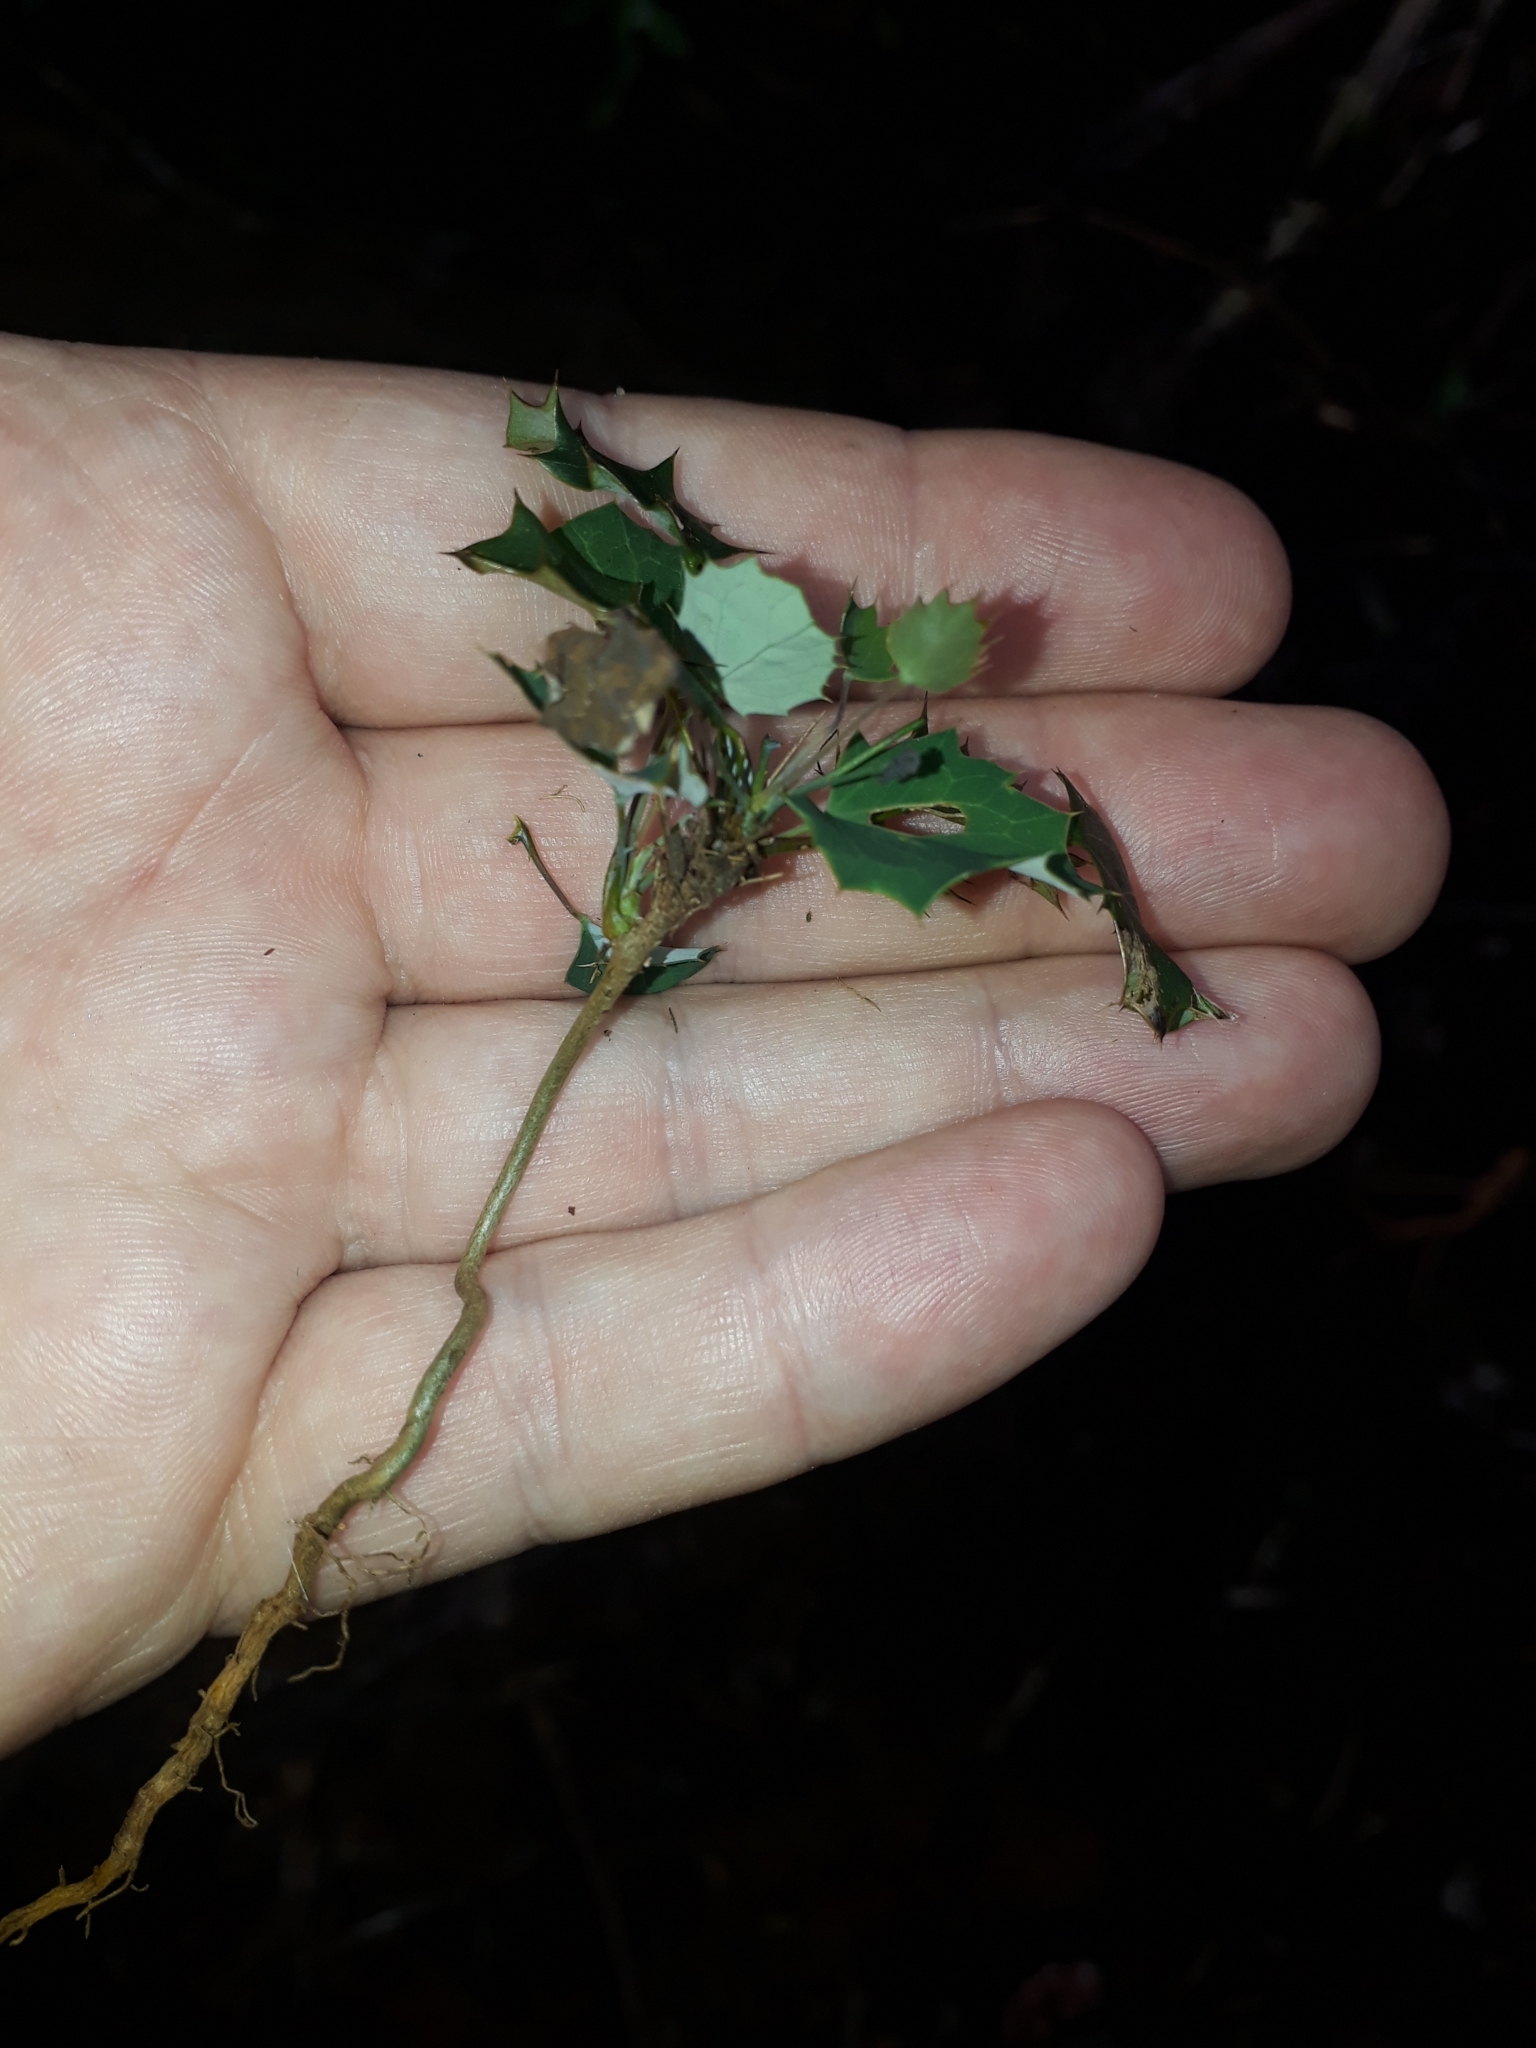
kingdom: Plantae
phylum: Tracheophyta
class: Magnoliopsida
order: Ranunculales
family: Berberidaceae
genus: Berberis
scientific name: Berberis glaucocarpa
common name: Great barberry
